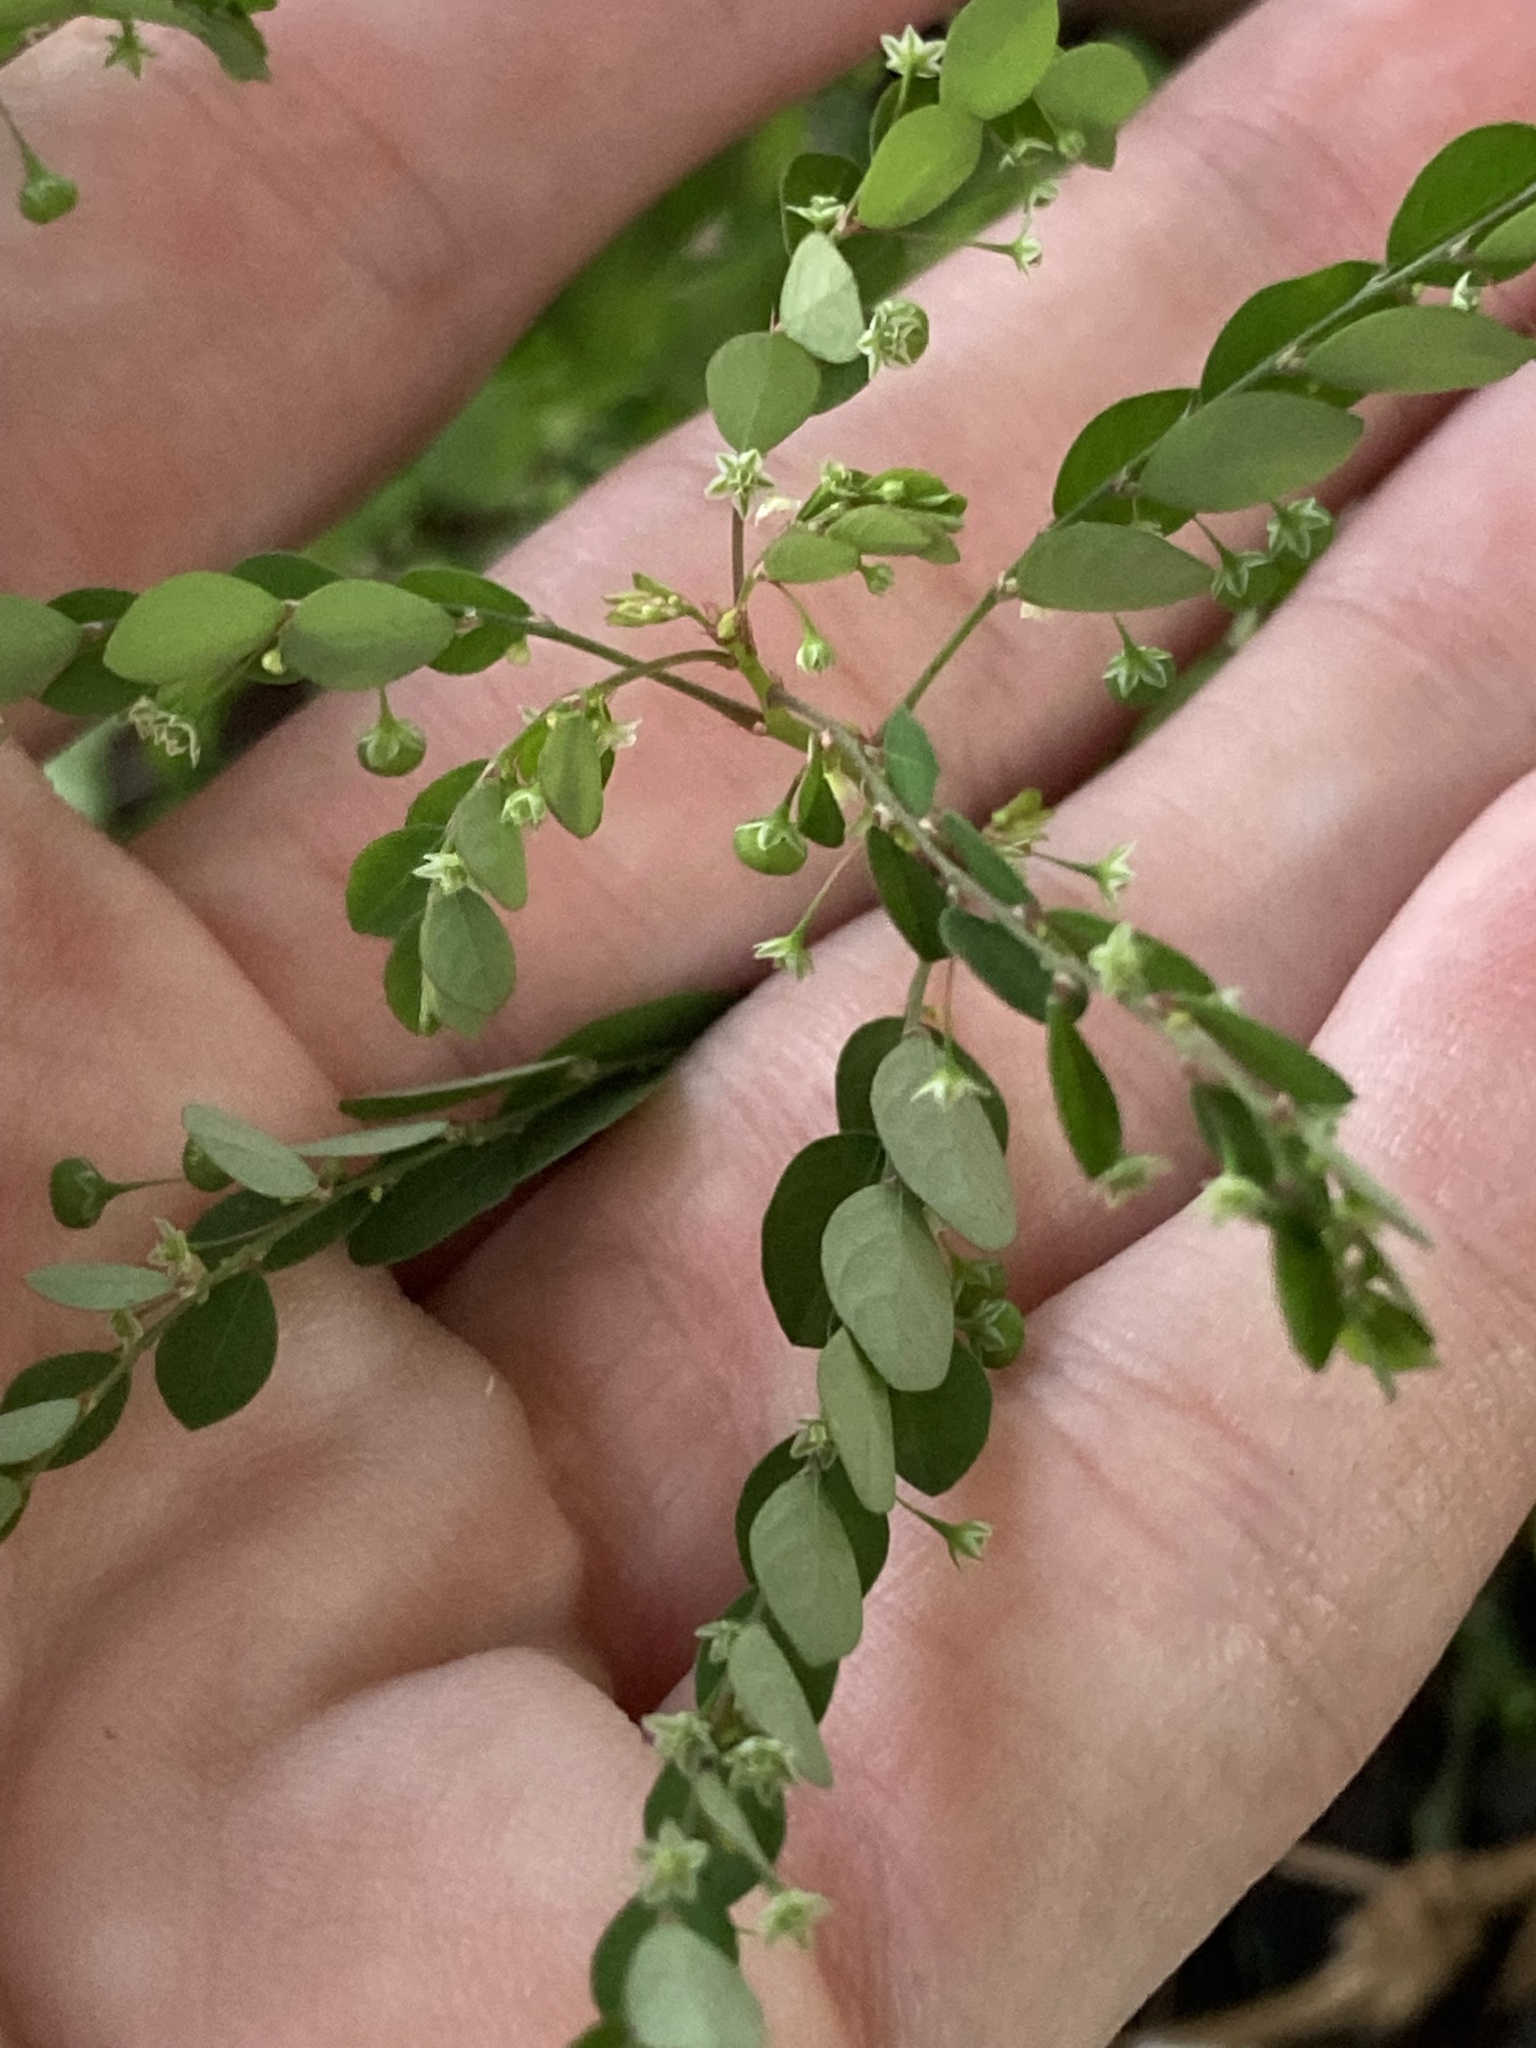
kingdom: Plantae
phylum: Tracheophyta
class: Magnoliopsida
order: Malpighiales
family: Phyllanthaceae
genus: Phyllanthus
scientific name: Phyllanthus tenellus
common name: Mascarene island leaf-flower
